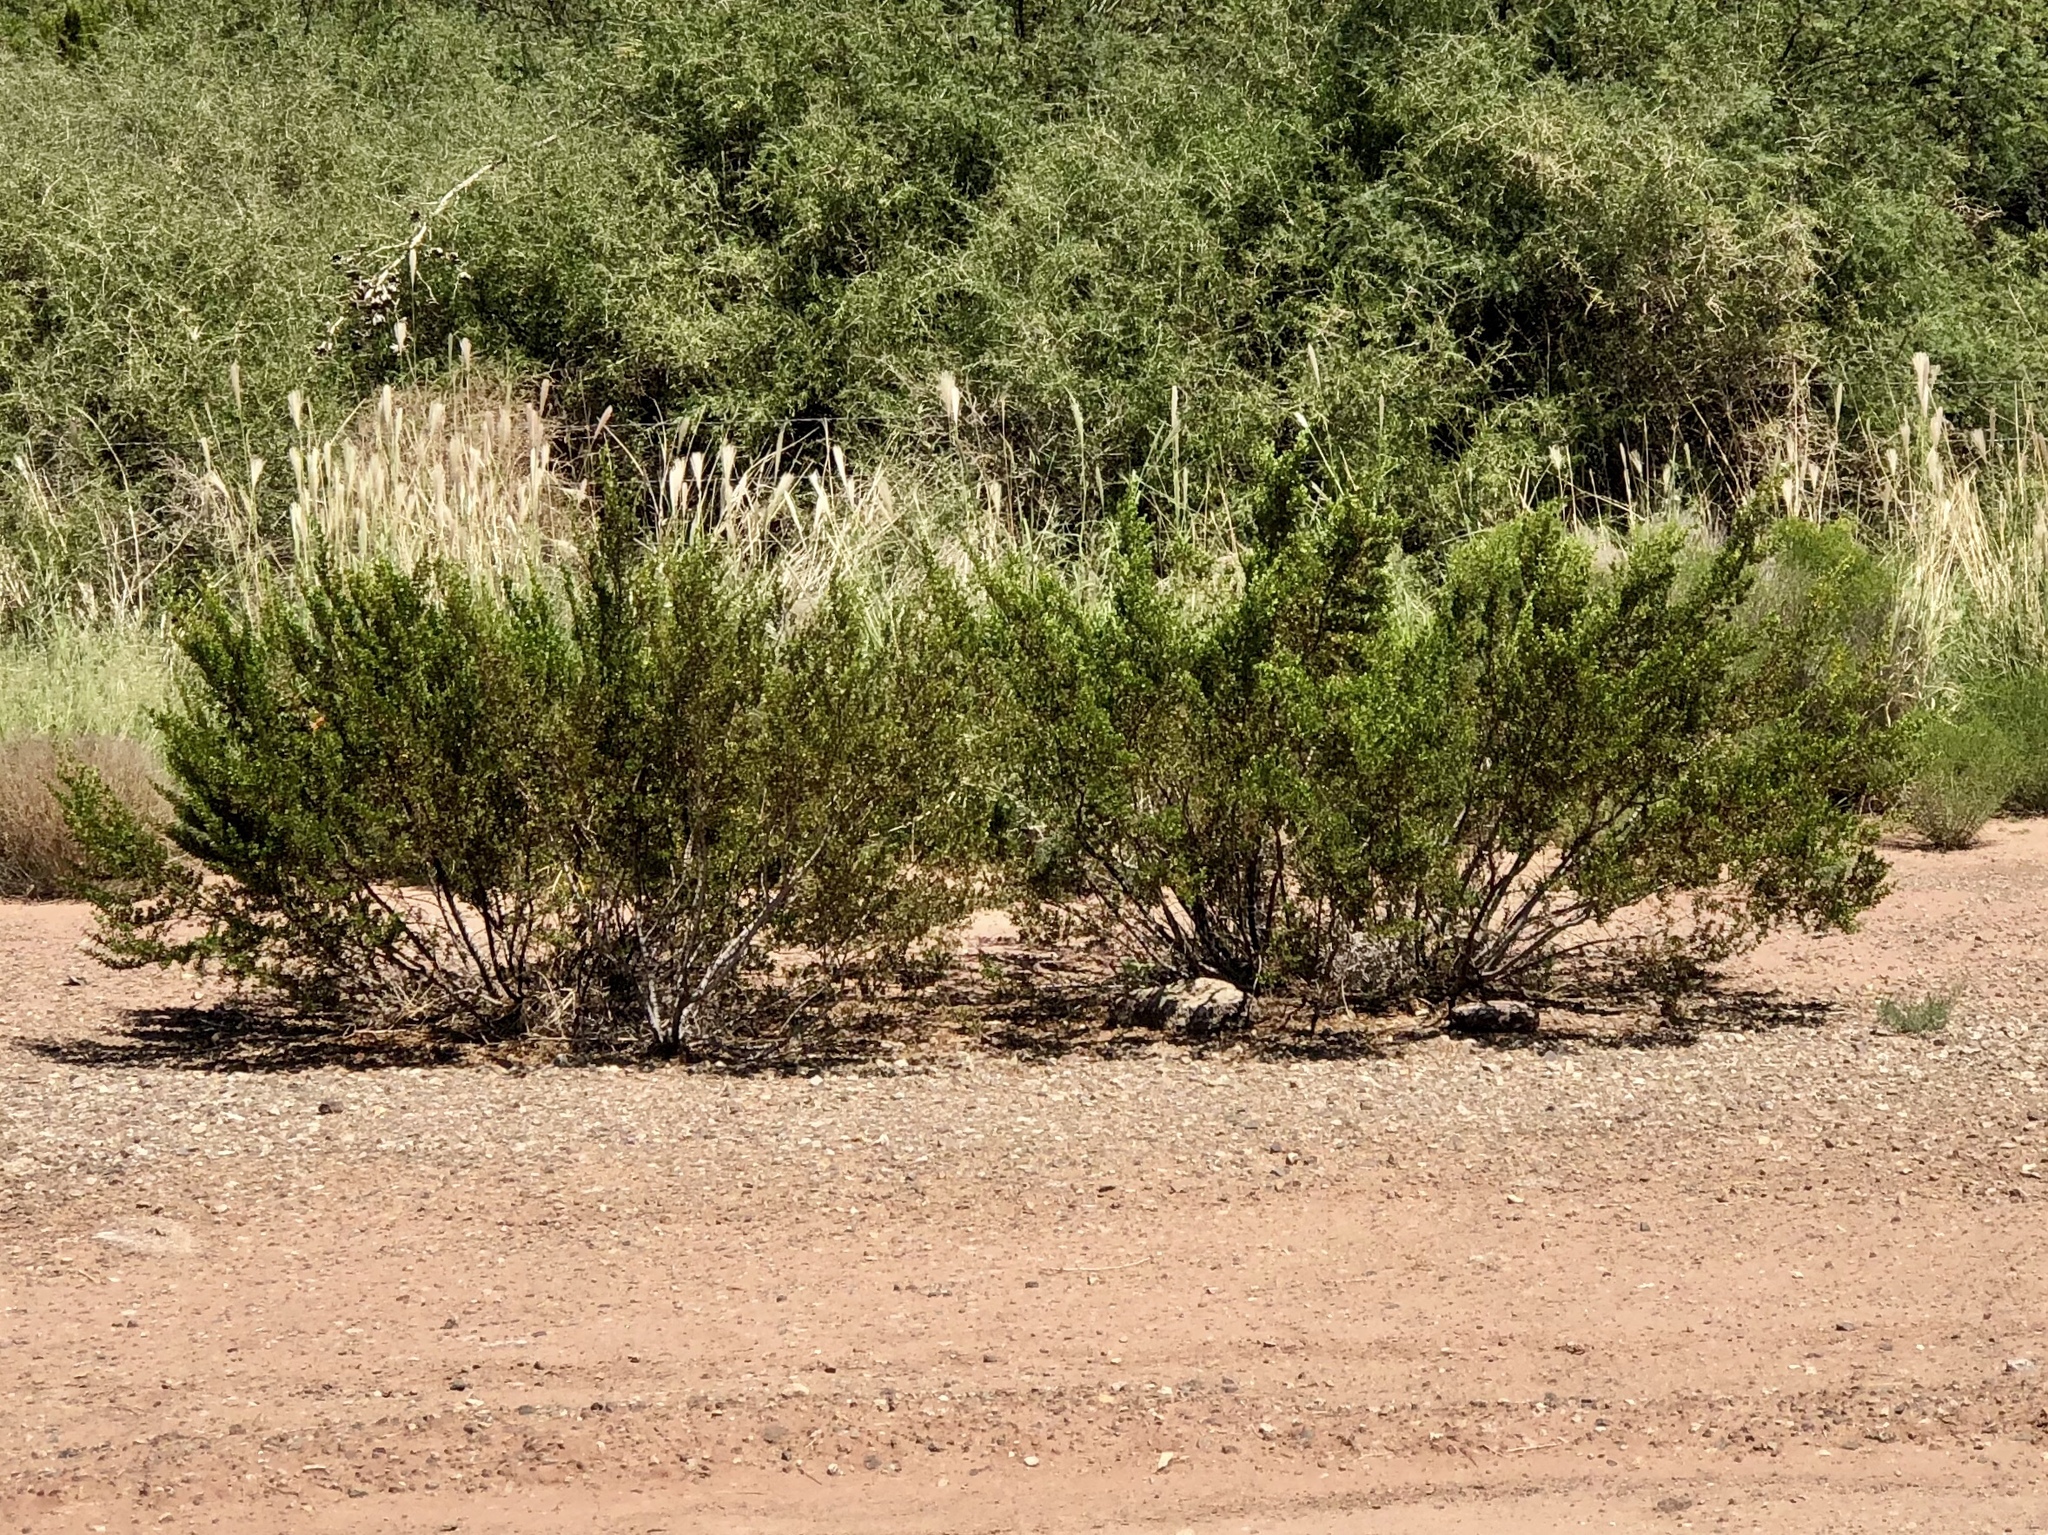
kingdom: Plantae
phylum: Tracheophyta
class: Magnoliopsida
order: Zygophyllales
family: Zygophyllaceae
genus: Larrea
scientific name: Larrea tridentata
